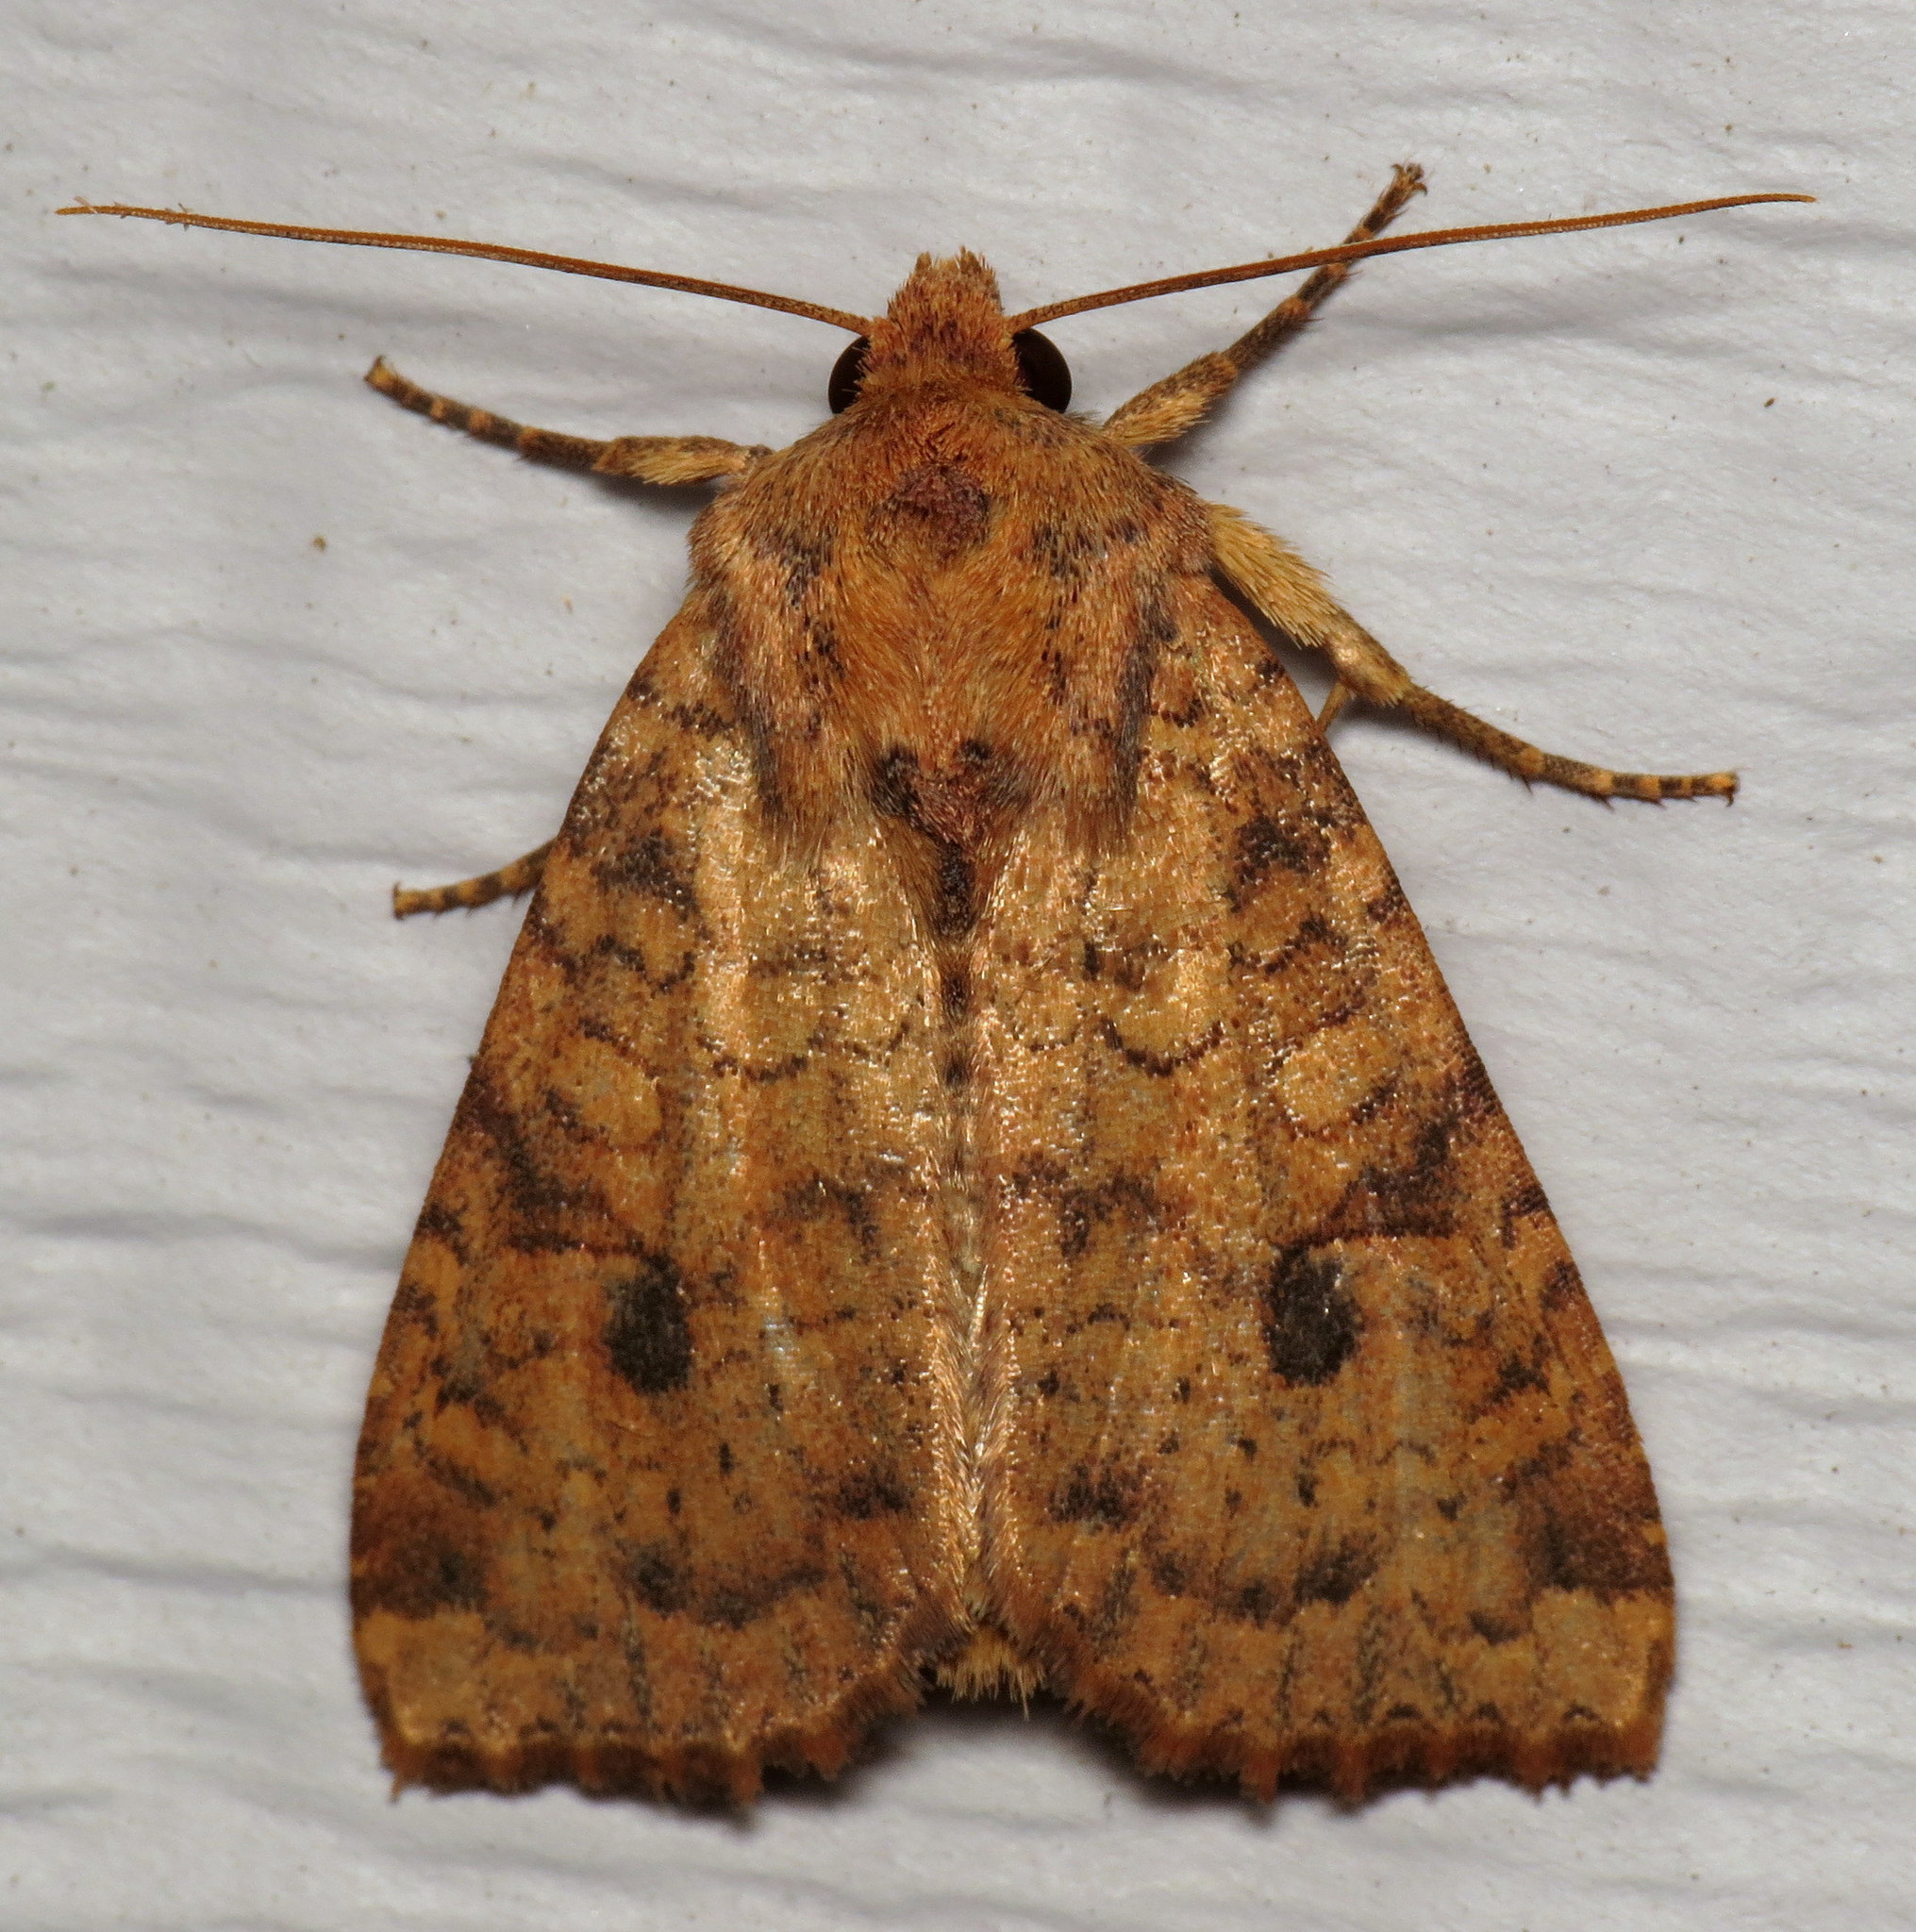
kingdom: Animalia
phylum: Arthropoda
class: Insecta
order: Lepidoptera
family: Noctuidae
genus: Apamea
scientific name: Apamea helva
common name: Yellow three-spot
